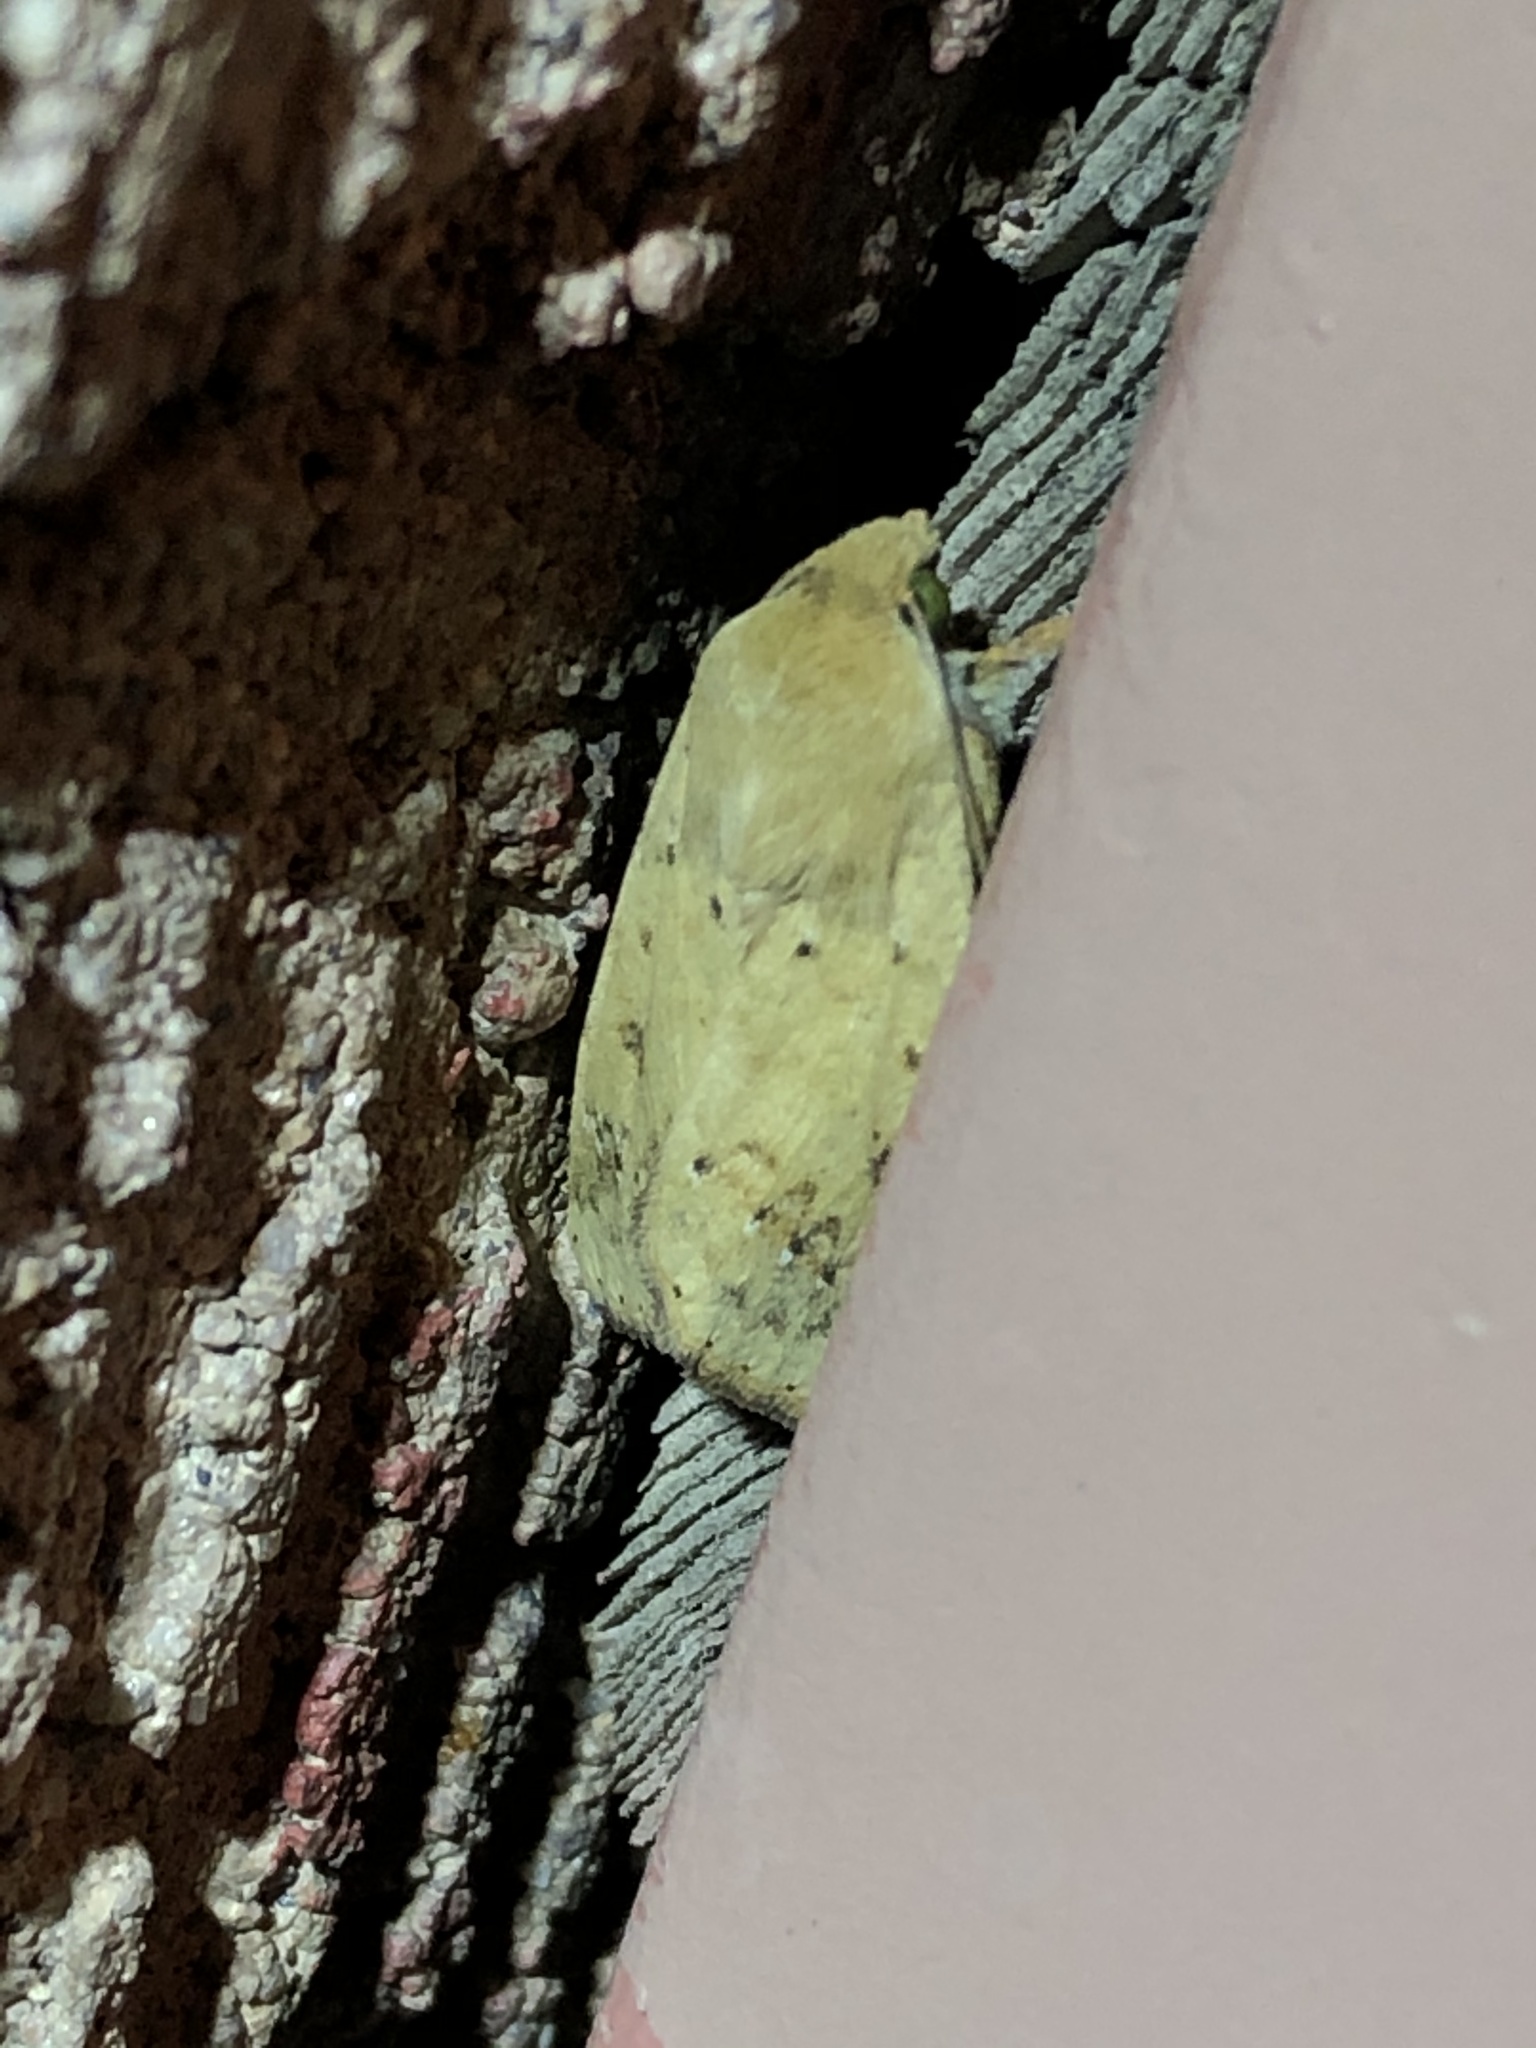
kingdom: Animalia
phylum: Arthropoda
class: Insecta
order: Lepidoptera
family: Noctuidae
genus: Helicoverpa
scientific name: Helicoverpa zea
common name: Bollworm
